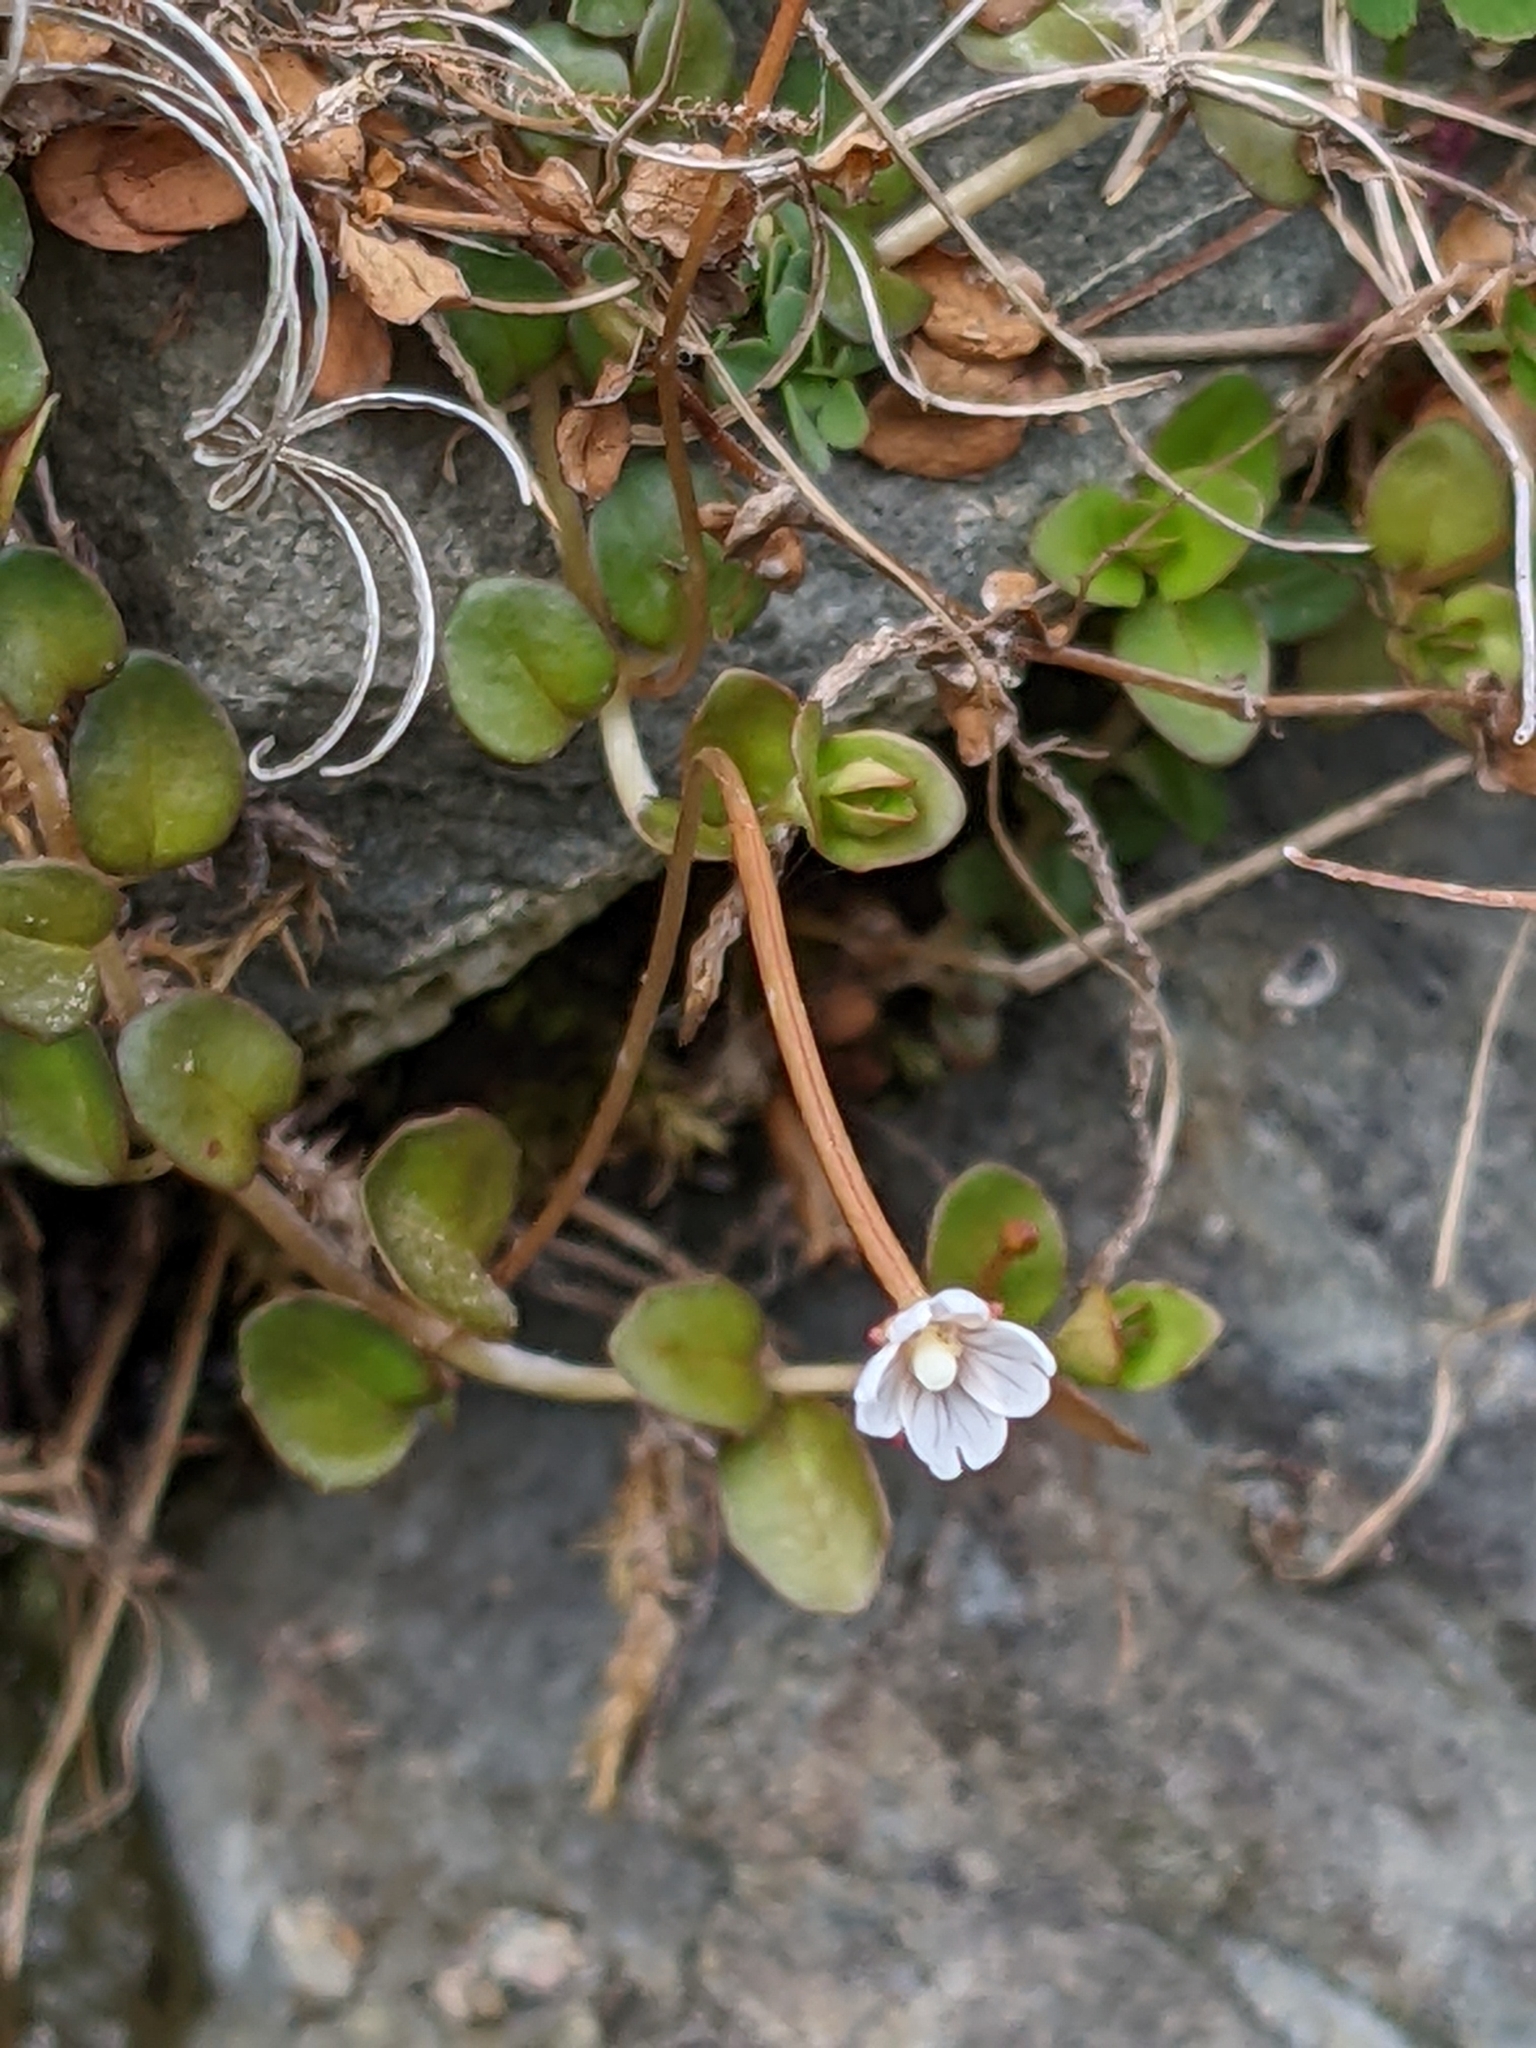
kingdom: Plantae
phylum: Tracheophyta
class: Magnoliopsida
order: Myrtales
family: Onagraceae
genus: Epilobium
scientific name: Epilobium brunnescens
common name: New zealand willowherb
